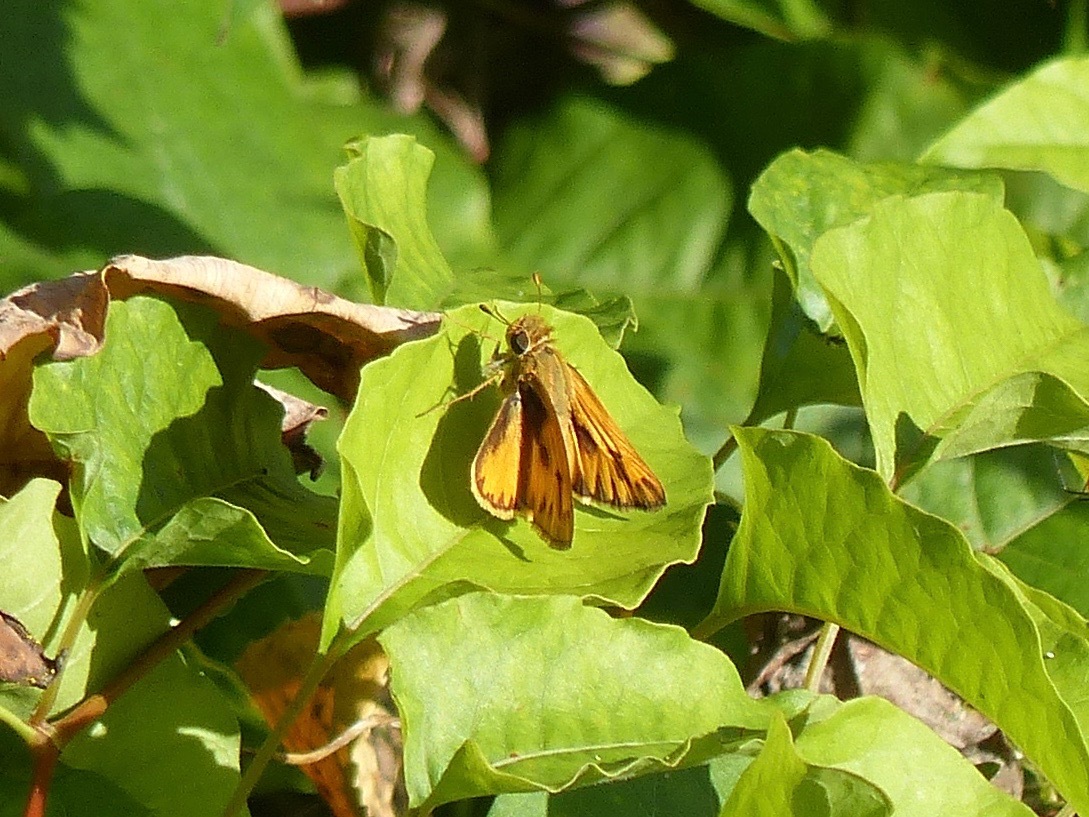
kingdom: Animalia
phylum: Arthropoda
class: Insecta
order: Lepidoptera
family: Hesperiidae
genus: Hylephila
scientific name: Hylephila phyleus
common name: Fiery skipper
